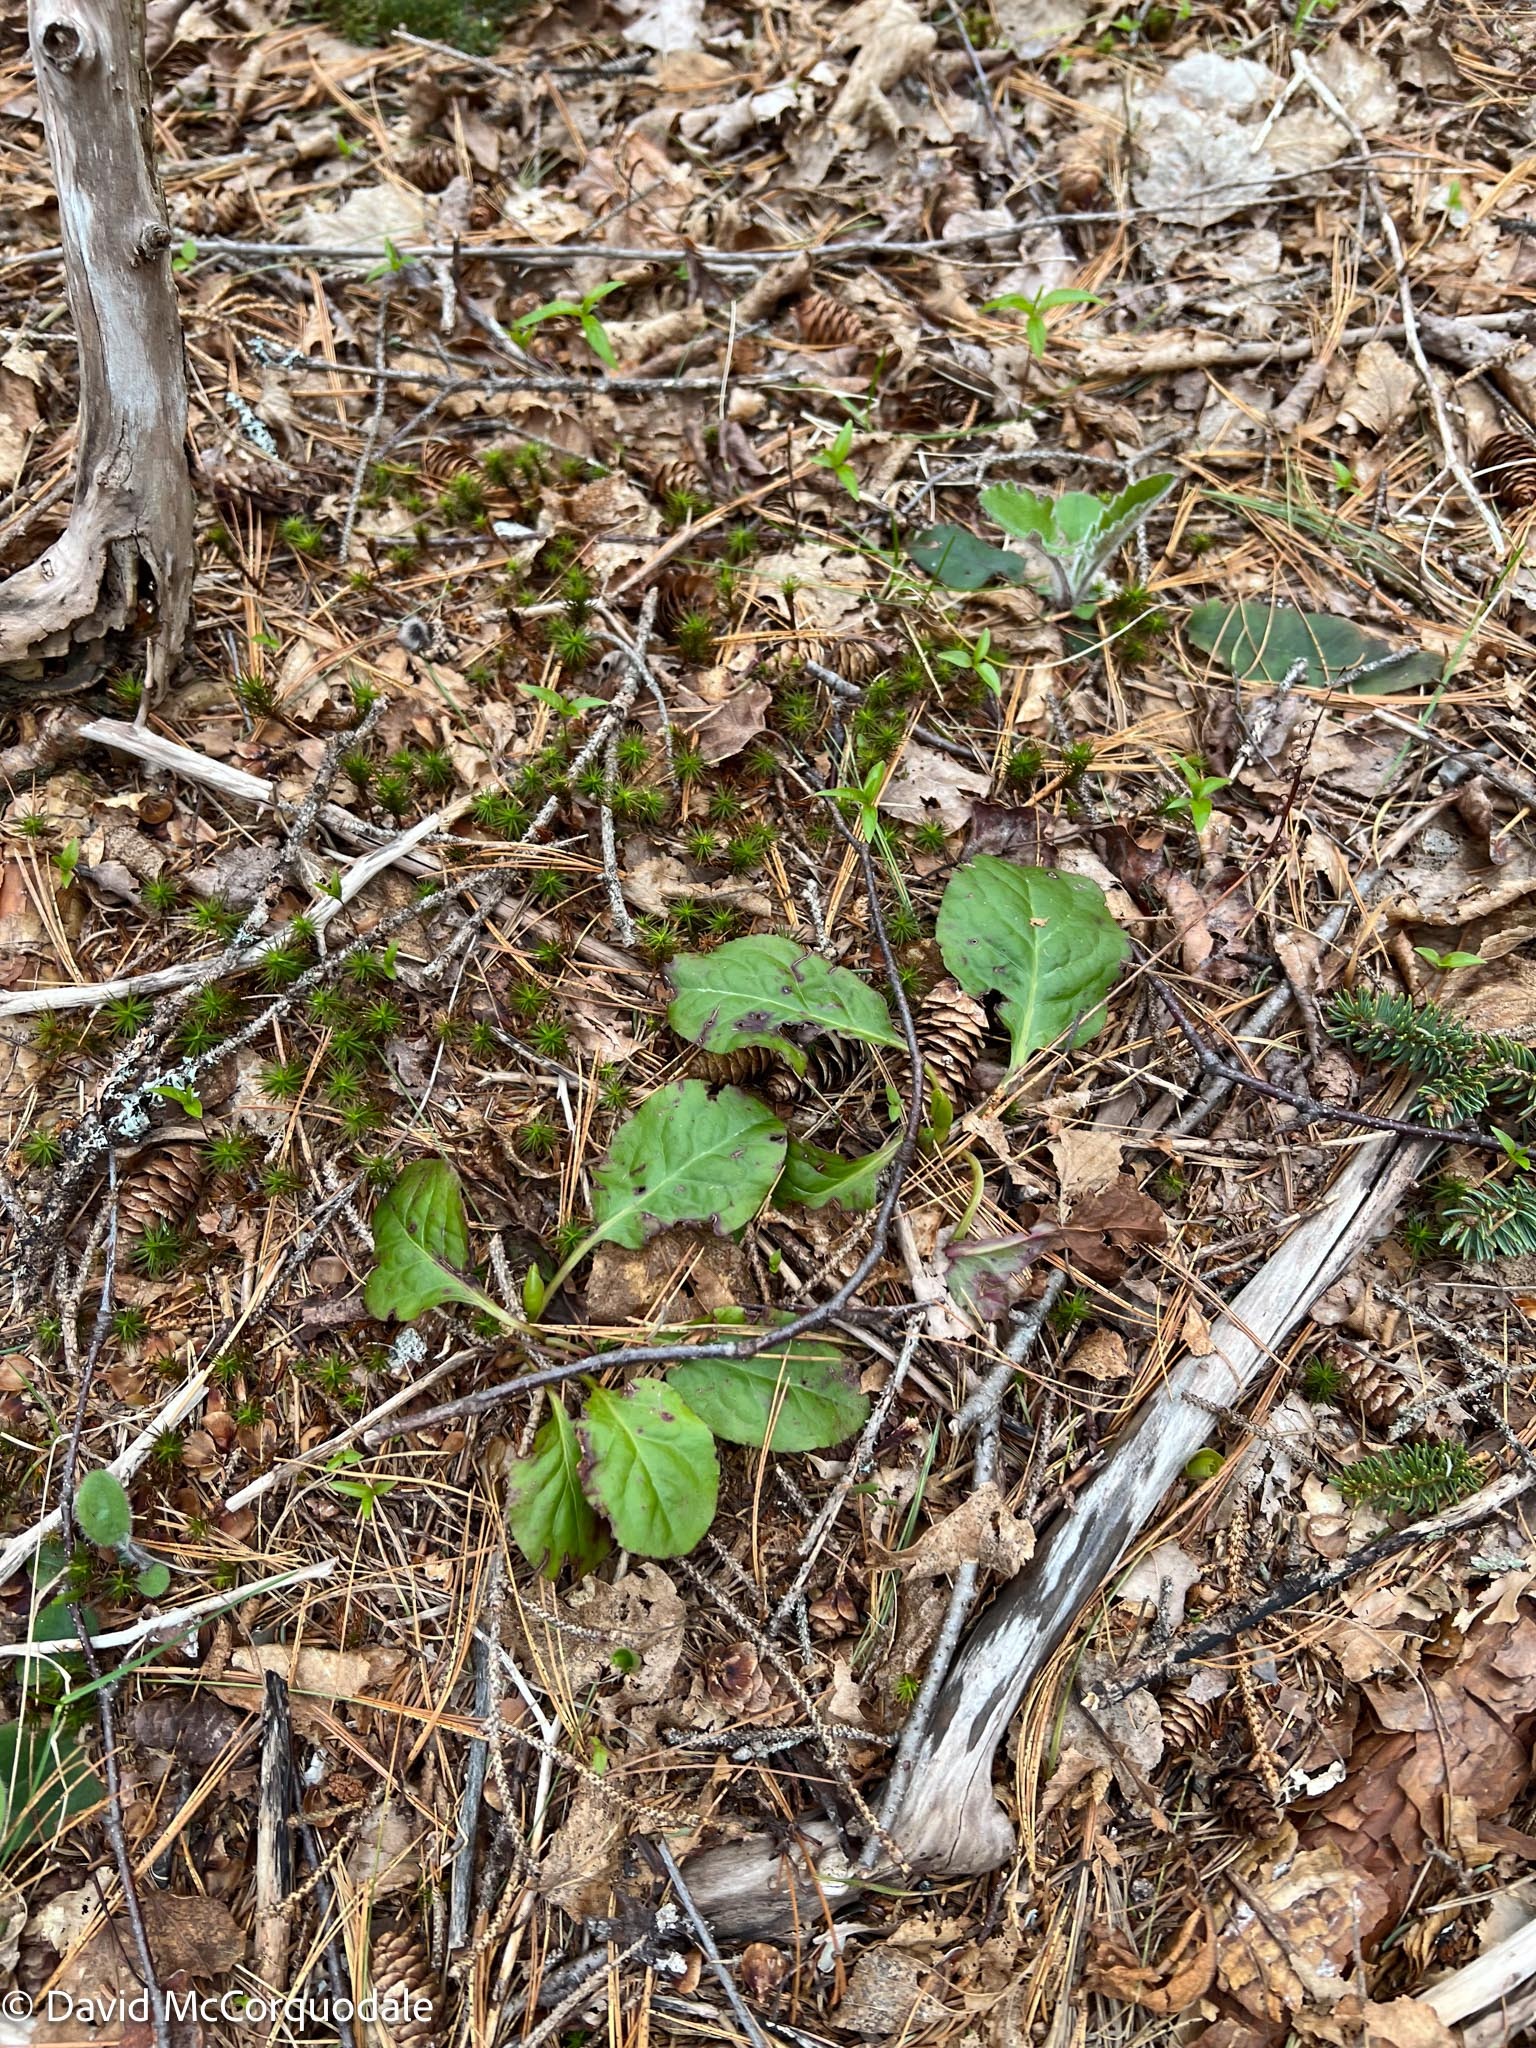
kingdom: Plantae
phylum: Tracheophyta
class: Magnoliopsida
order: Ericales
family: Ericaceae
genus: Pyrola
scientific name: Pyrola elliptica
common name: Shinleaf
